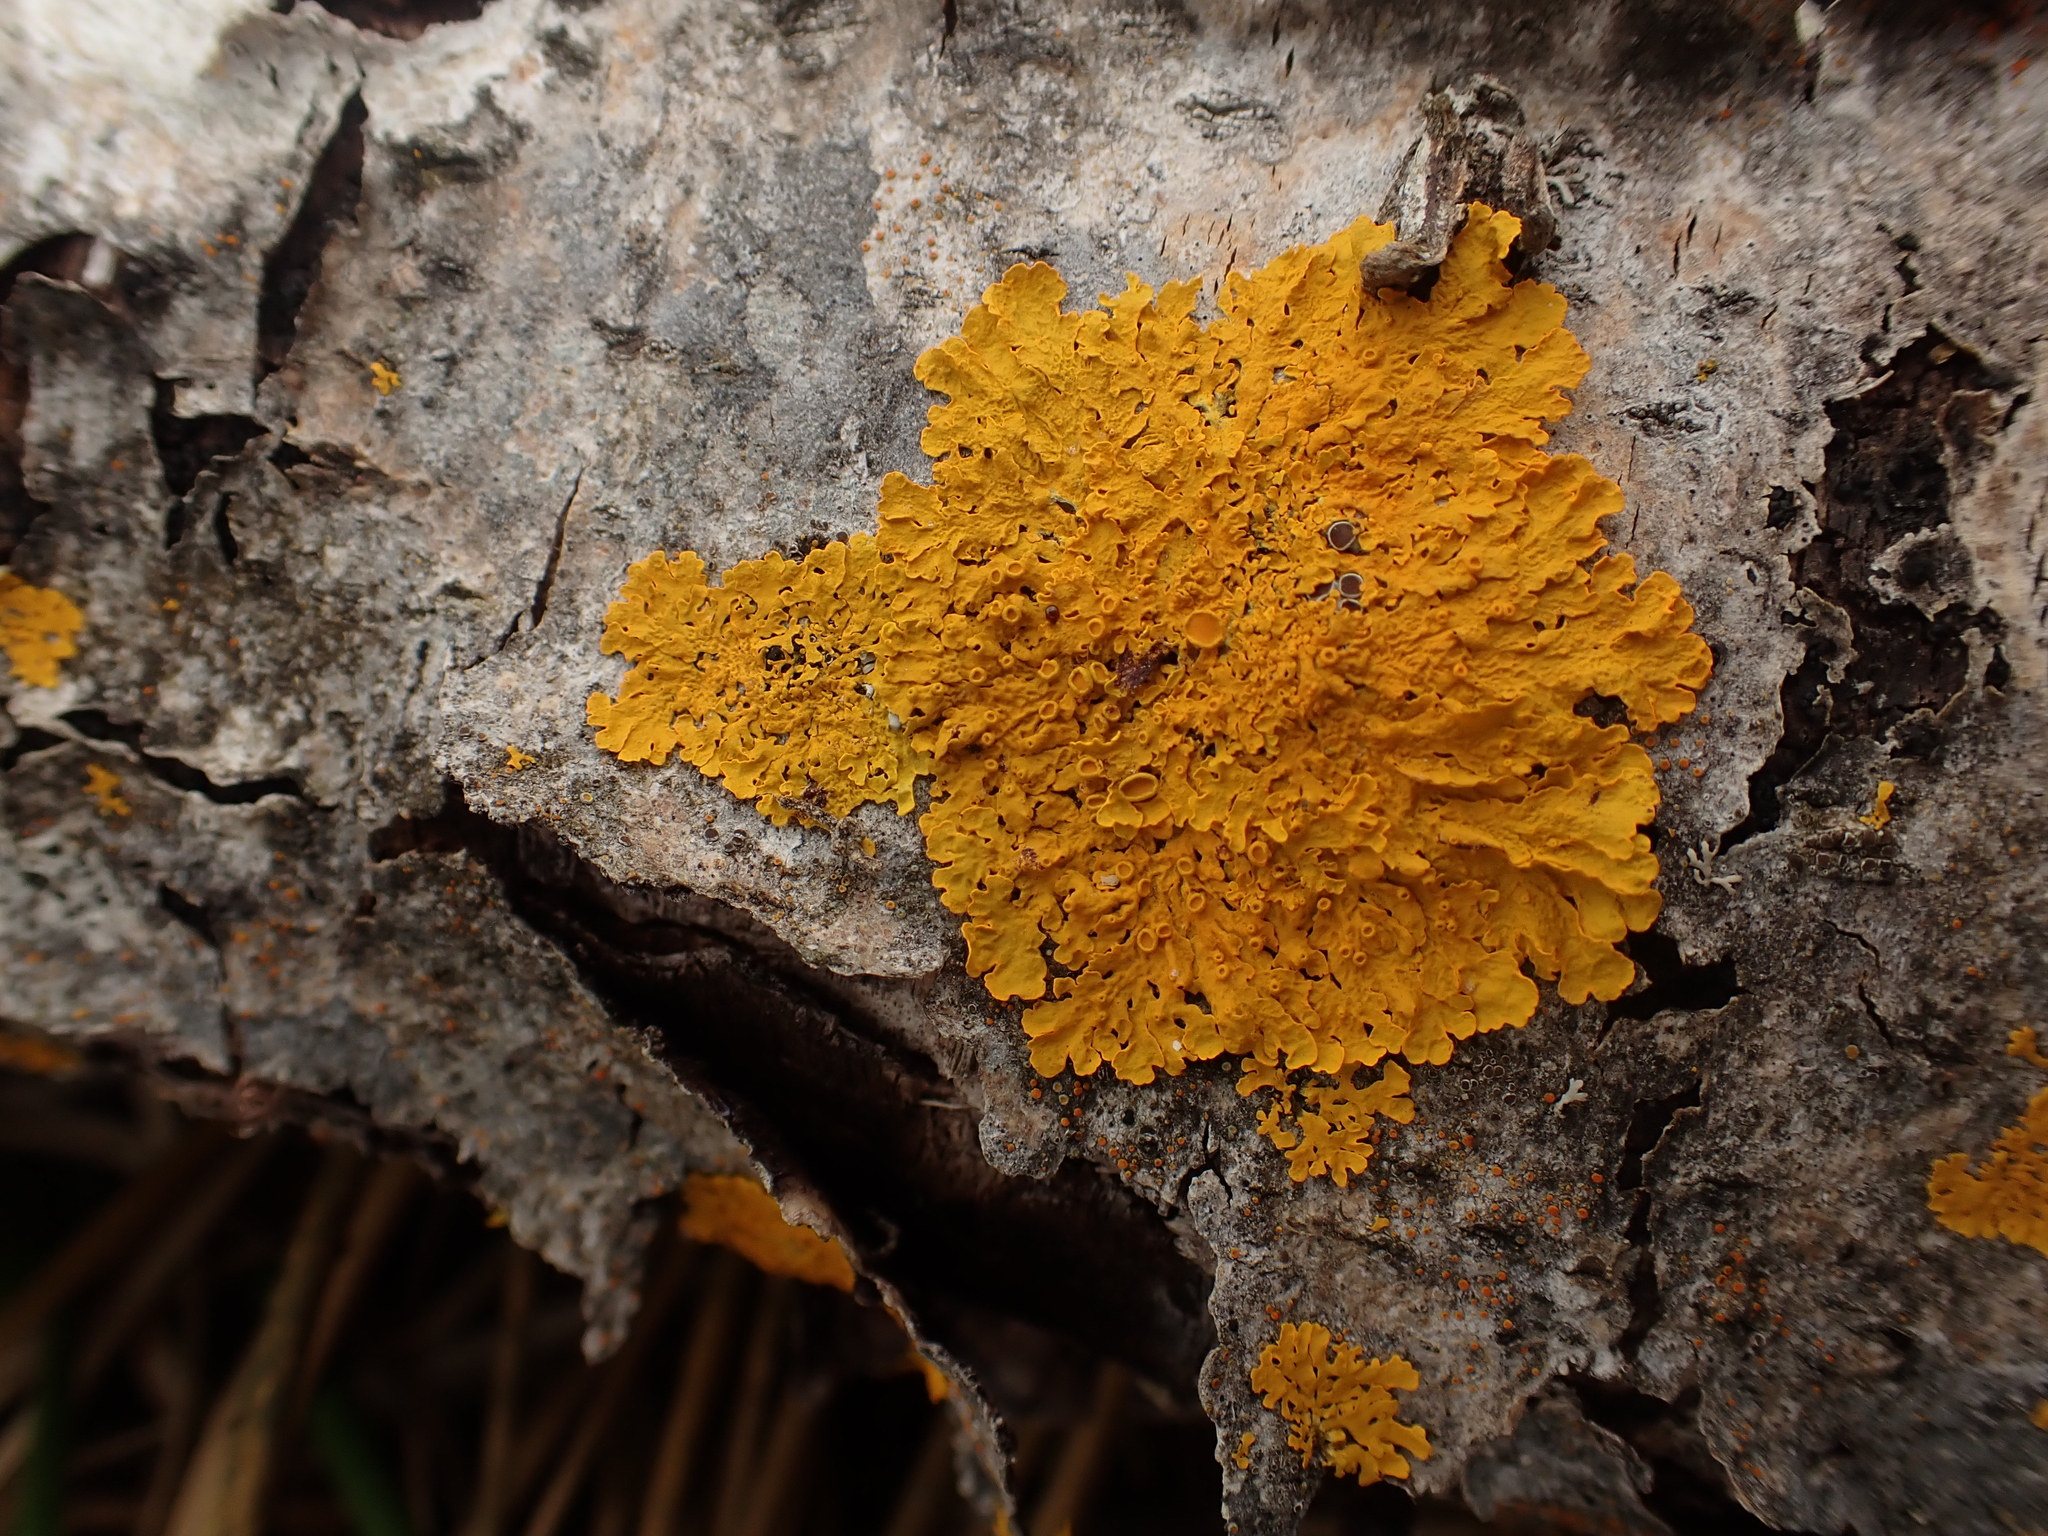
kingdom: Fungi
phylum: Ascomycota
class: Lecanoromycetes
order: Teloschistales
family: Teloschistaceae
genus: Xanthoria
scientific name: Xanthoria parietina
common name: Common orange lichen
